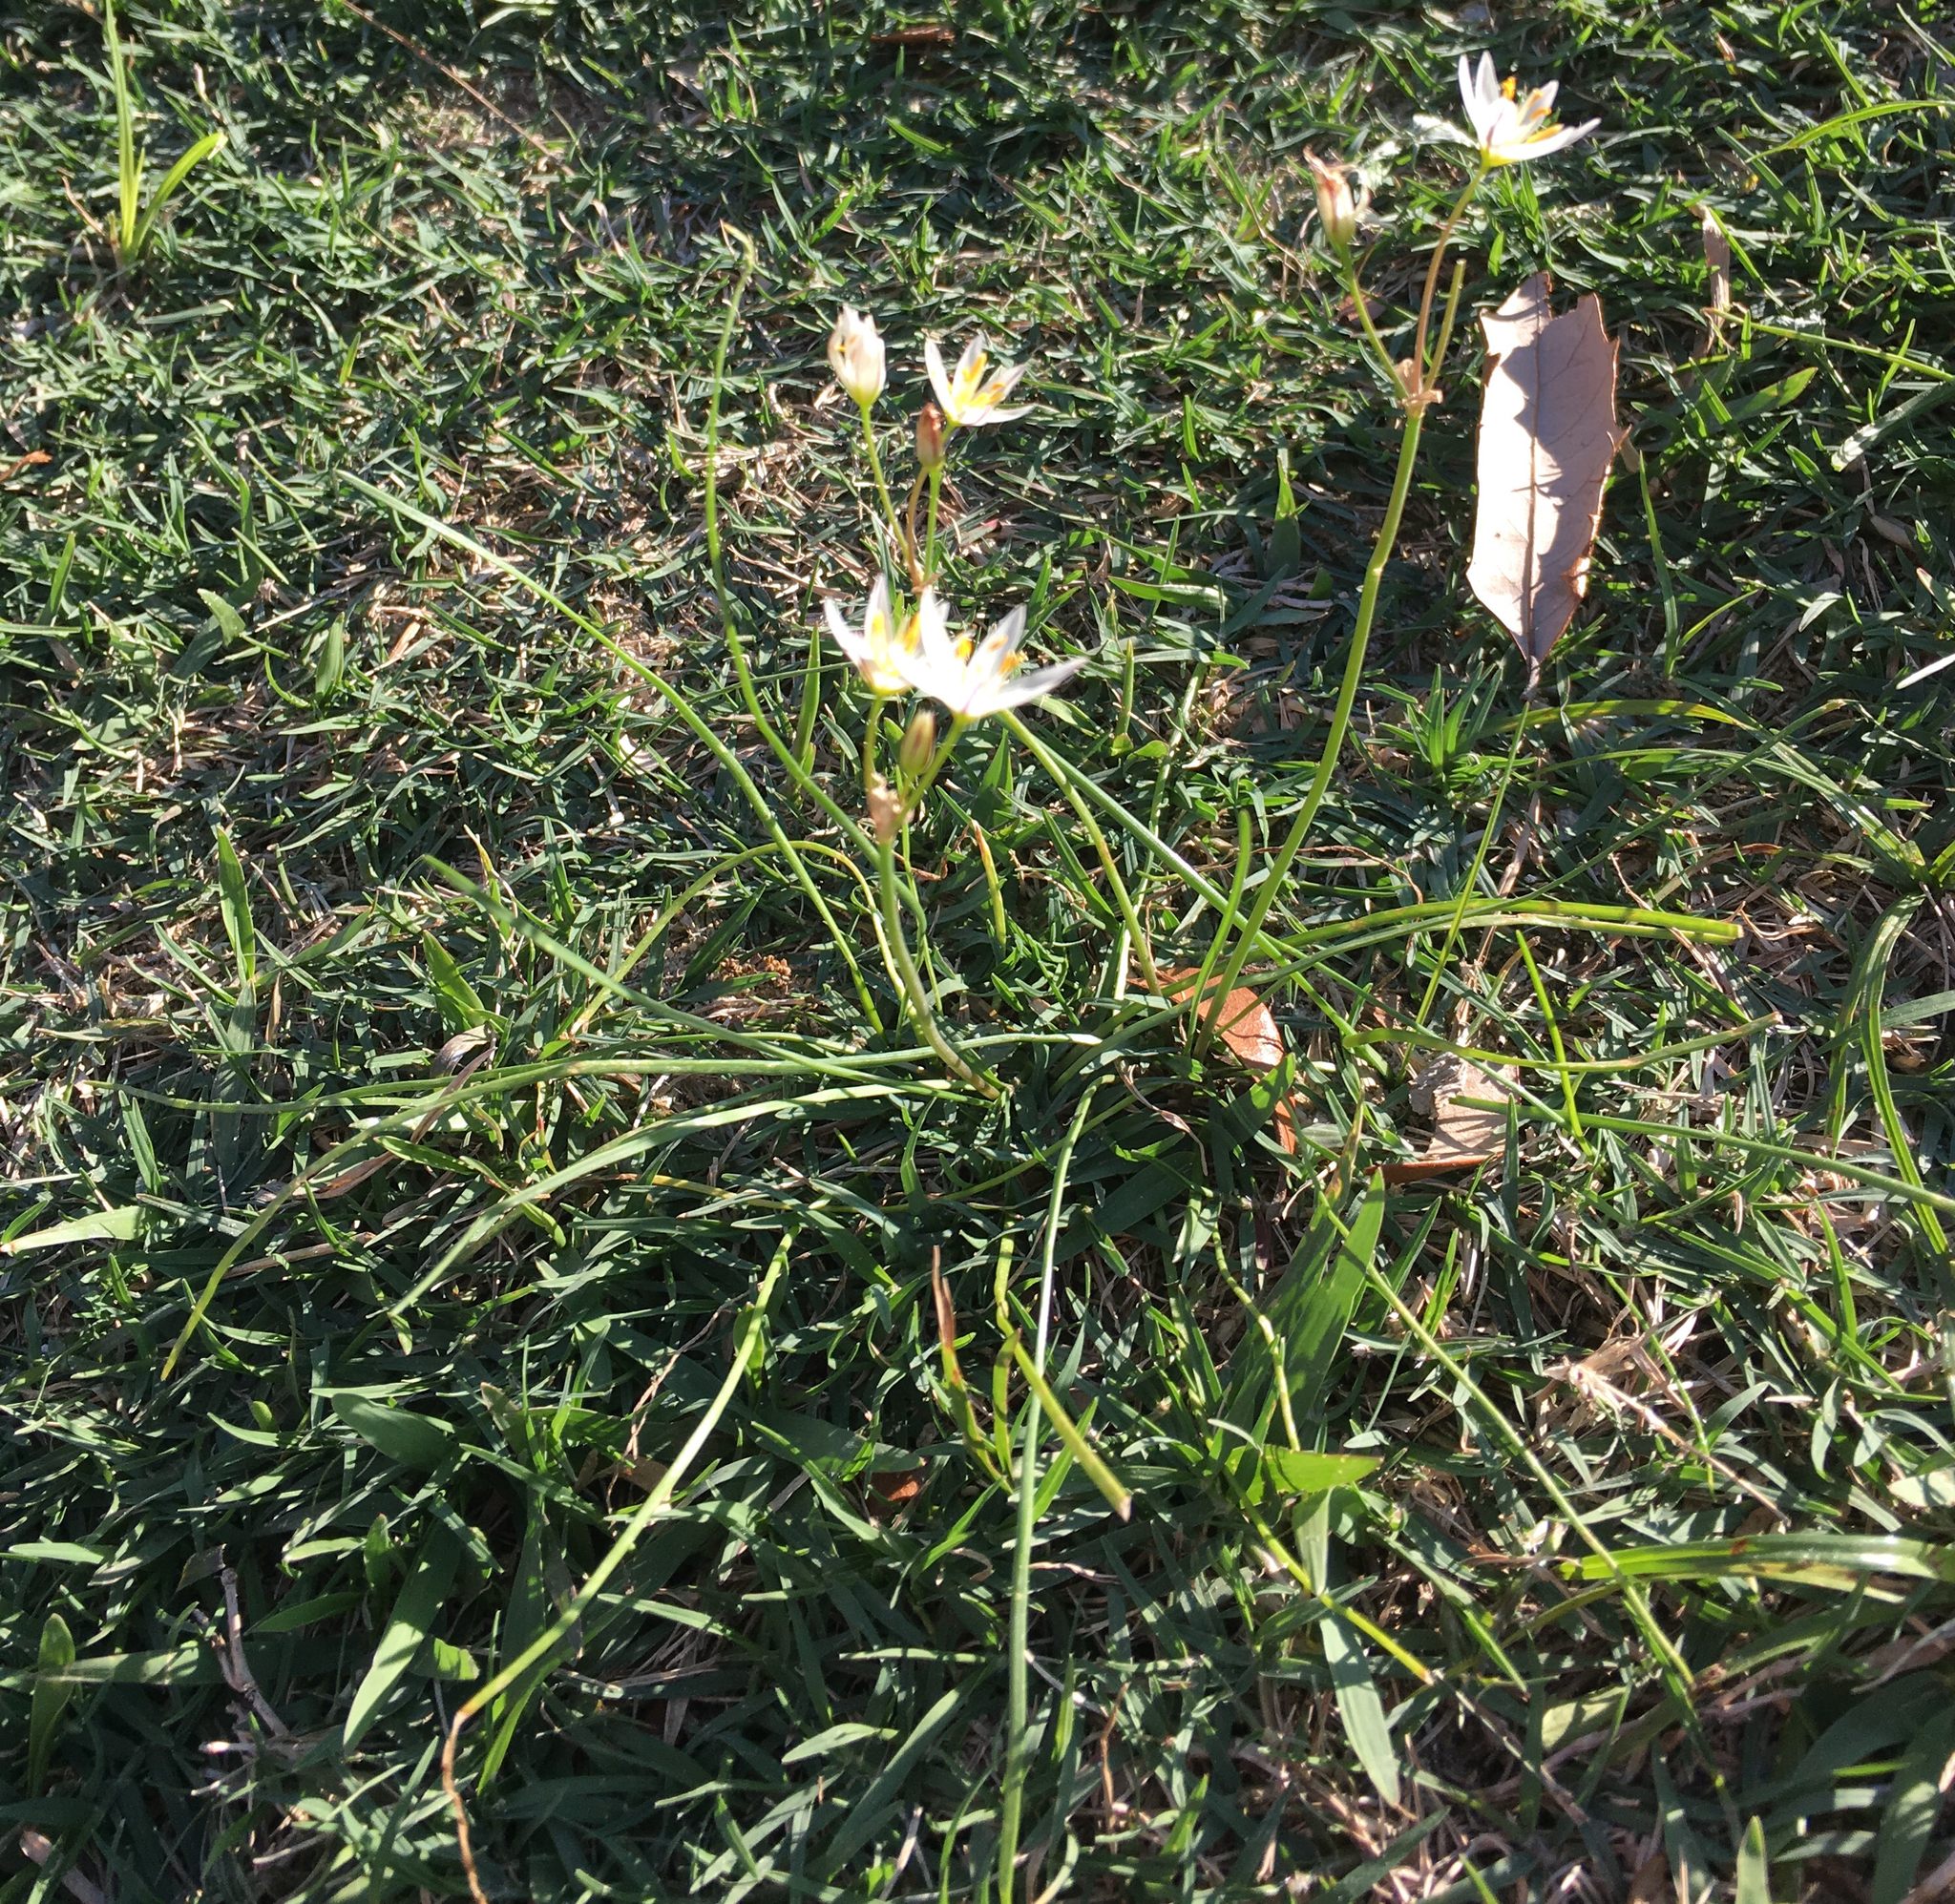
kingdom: Plantae
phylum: Tracheophyta
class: Liliopsida
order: Asparagales
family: Amaryllidaceae
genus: Nothoscordum
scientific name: Nothoscordum bivalve
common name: Crow-poison
